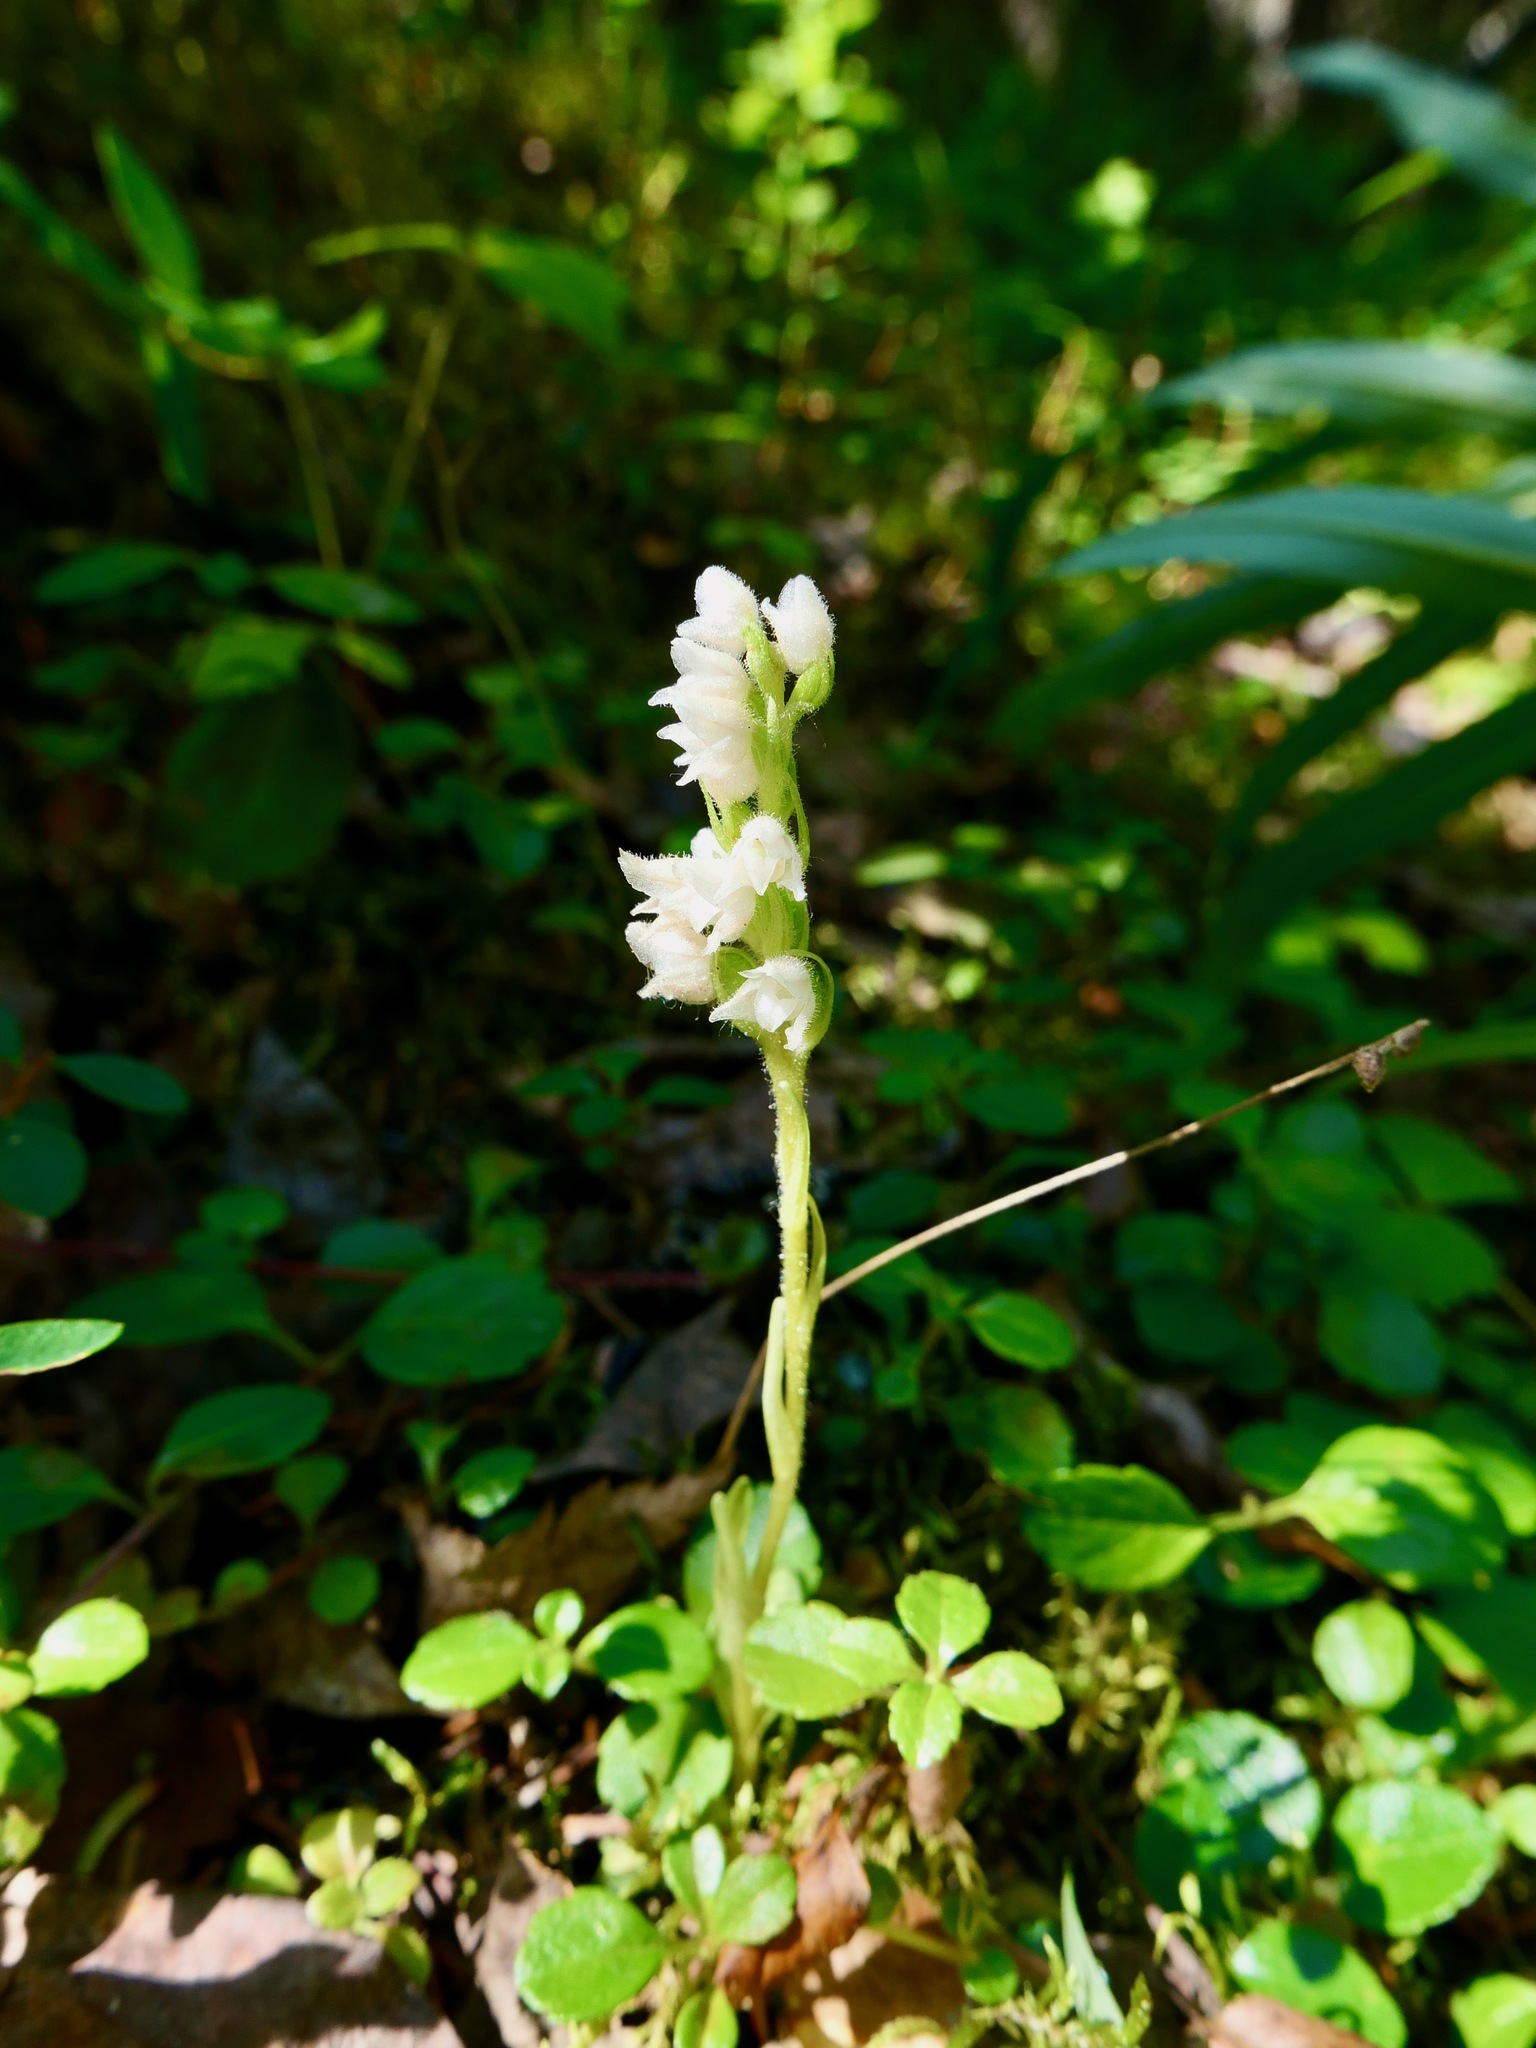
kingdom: Plantae
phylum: Tracheophyta
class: Liliopsida
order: Asparagales
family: Orchidaceae
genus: Goodyera
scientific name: Goodyera repens
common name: Creeping lady's-tresses
